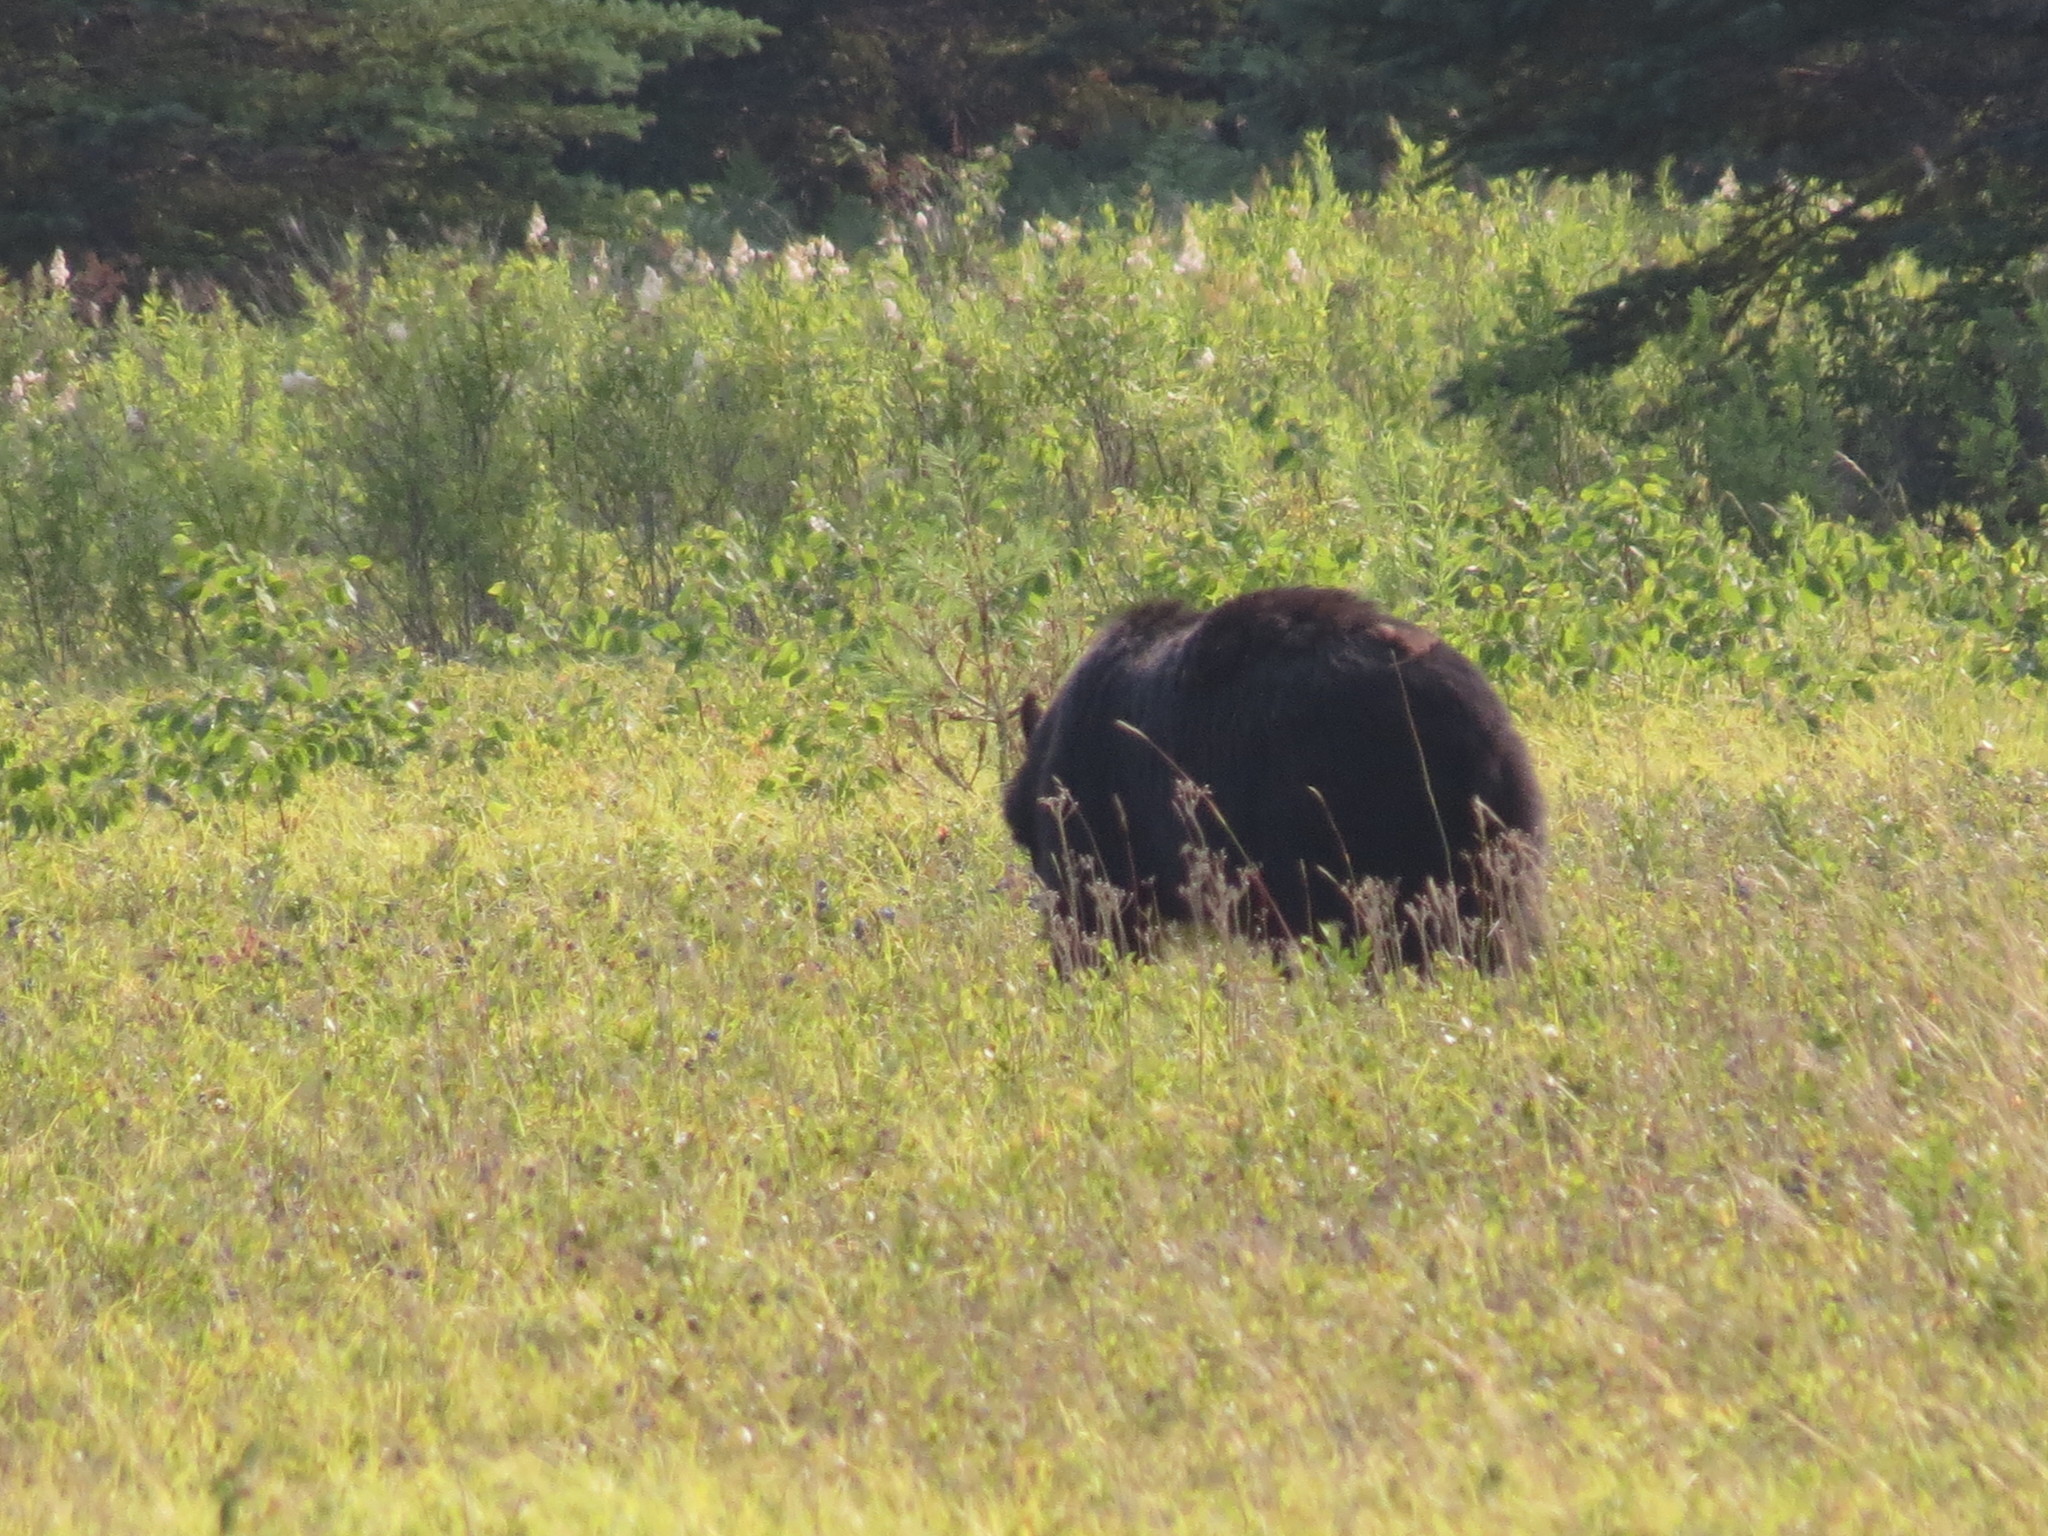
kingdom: Animalia
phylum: Chordata
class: Mammalia
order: Carnivora
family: Ursidae
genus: Ursus
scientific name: Ursus americanus
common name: American black bear
